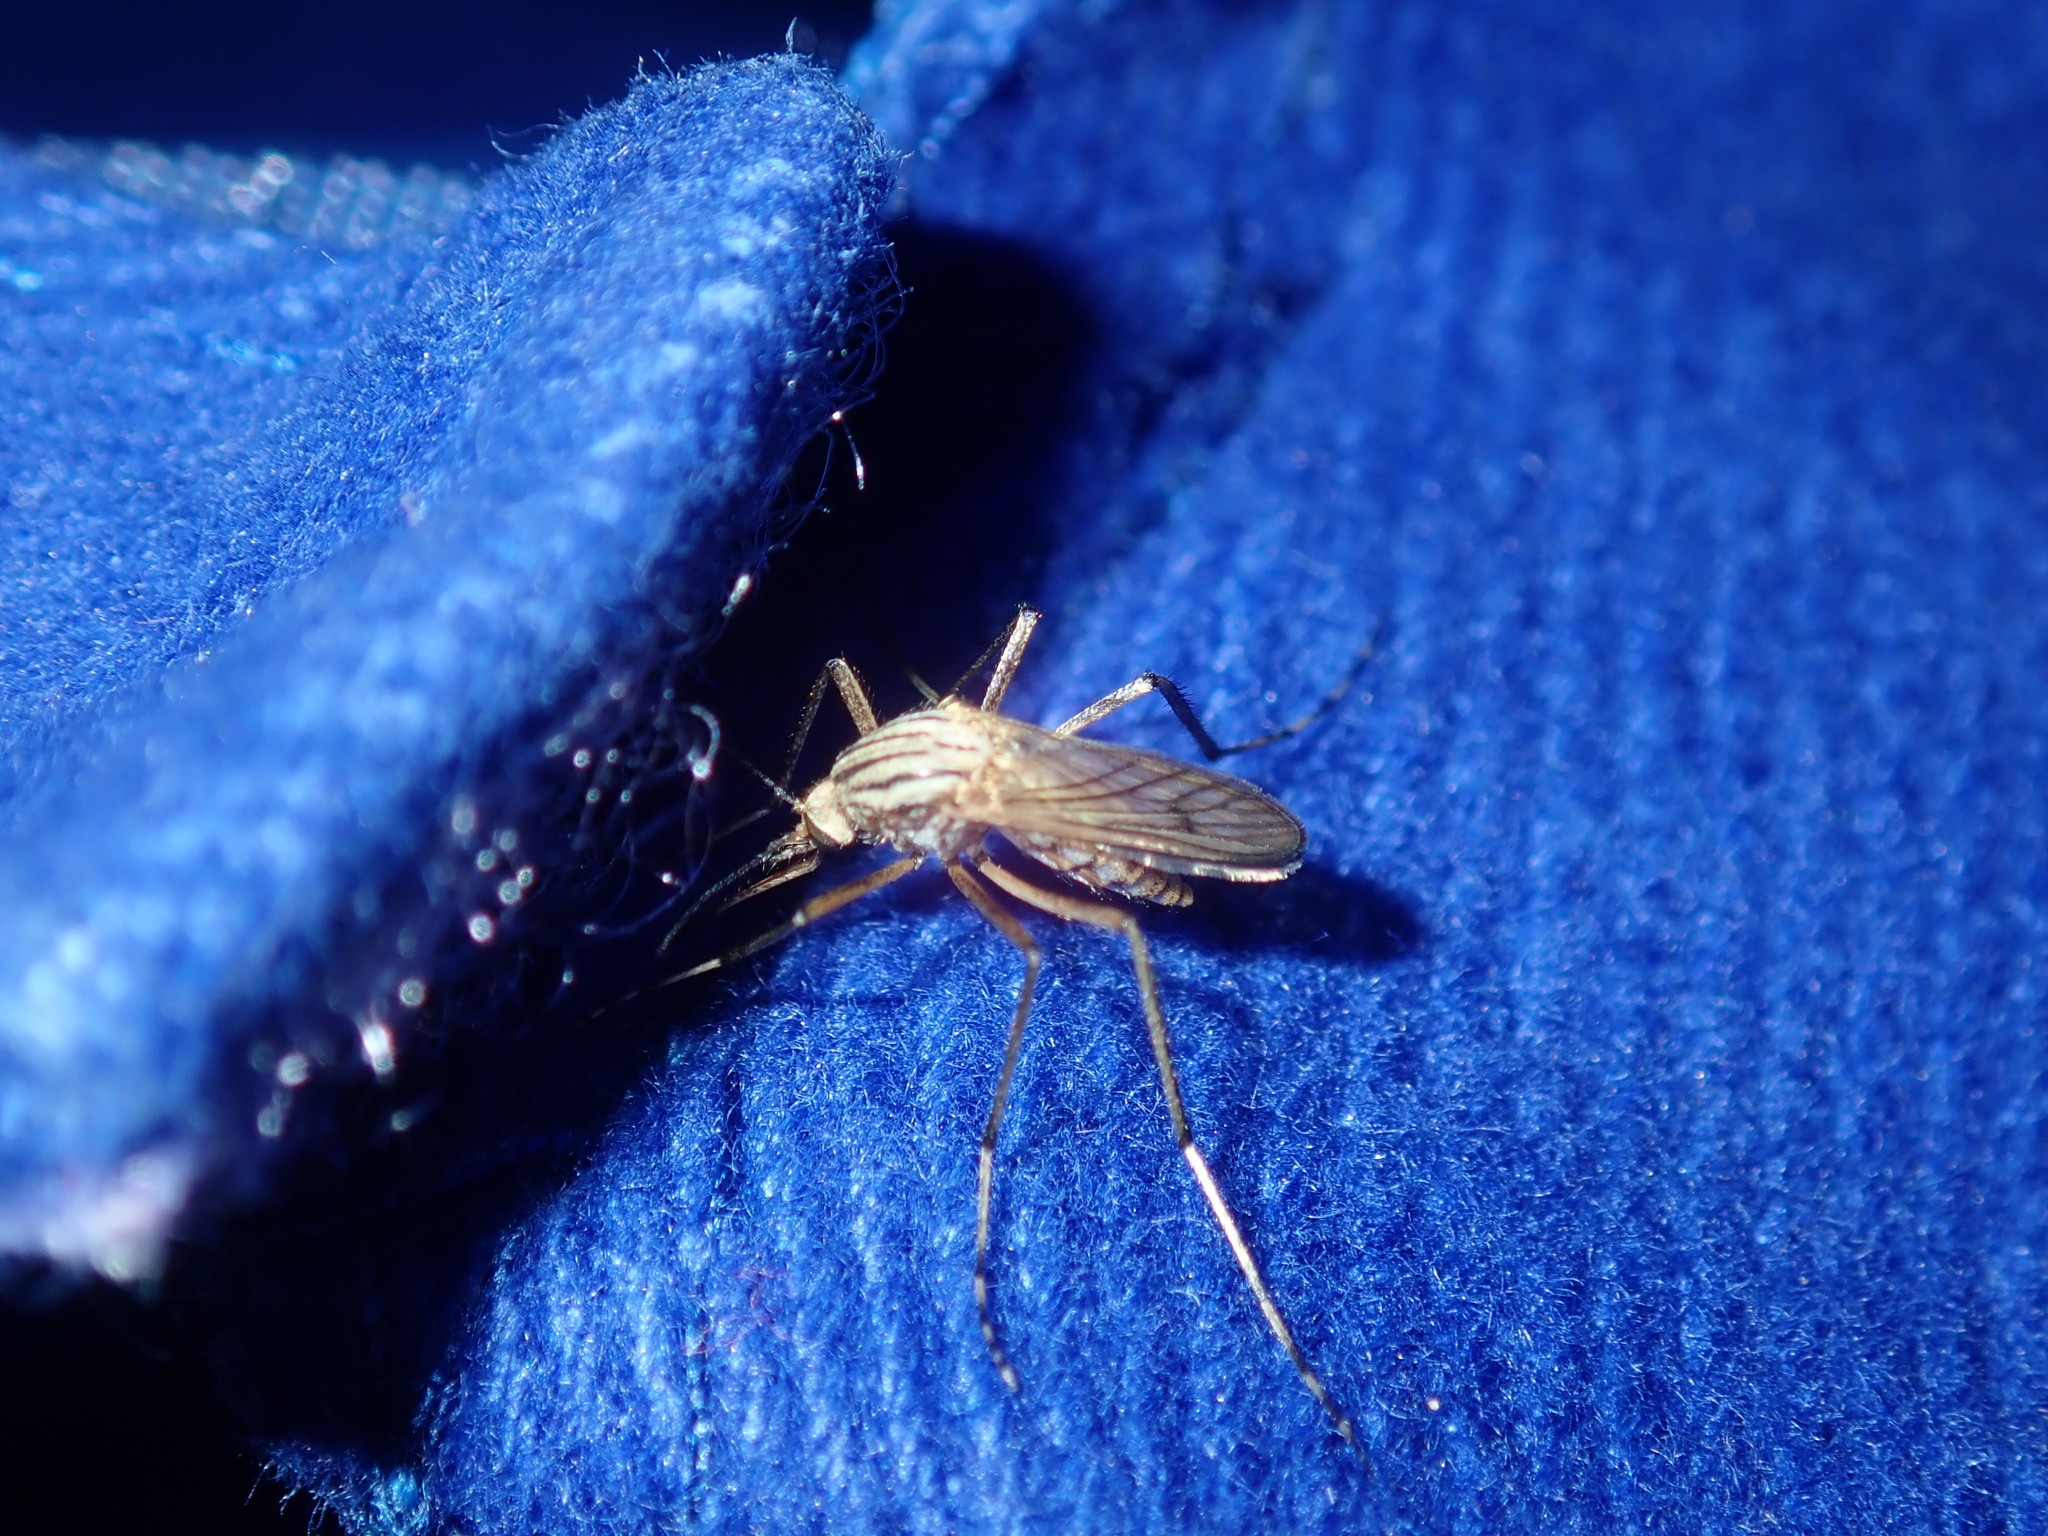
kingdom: Animalia
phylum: Arthropoda
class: Insecta
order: Diptera
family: Culicidae
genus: Aedes
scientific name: Aedes vittiger
